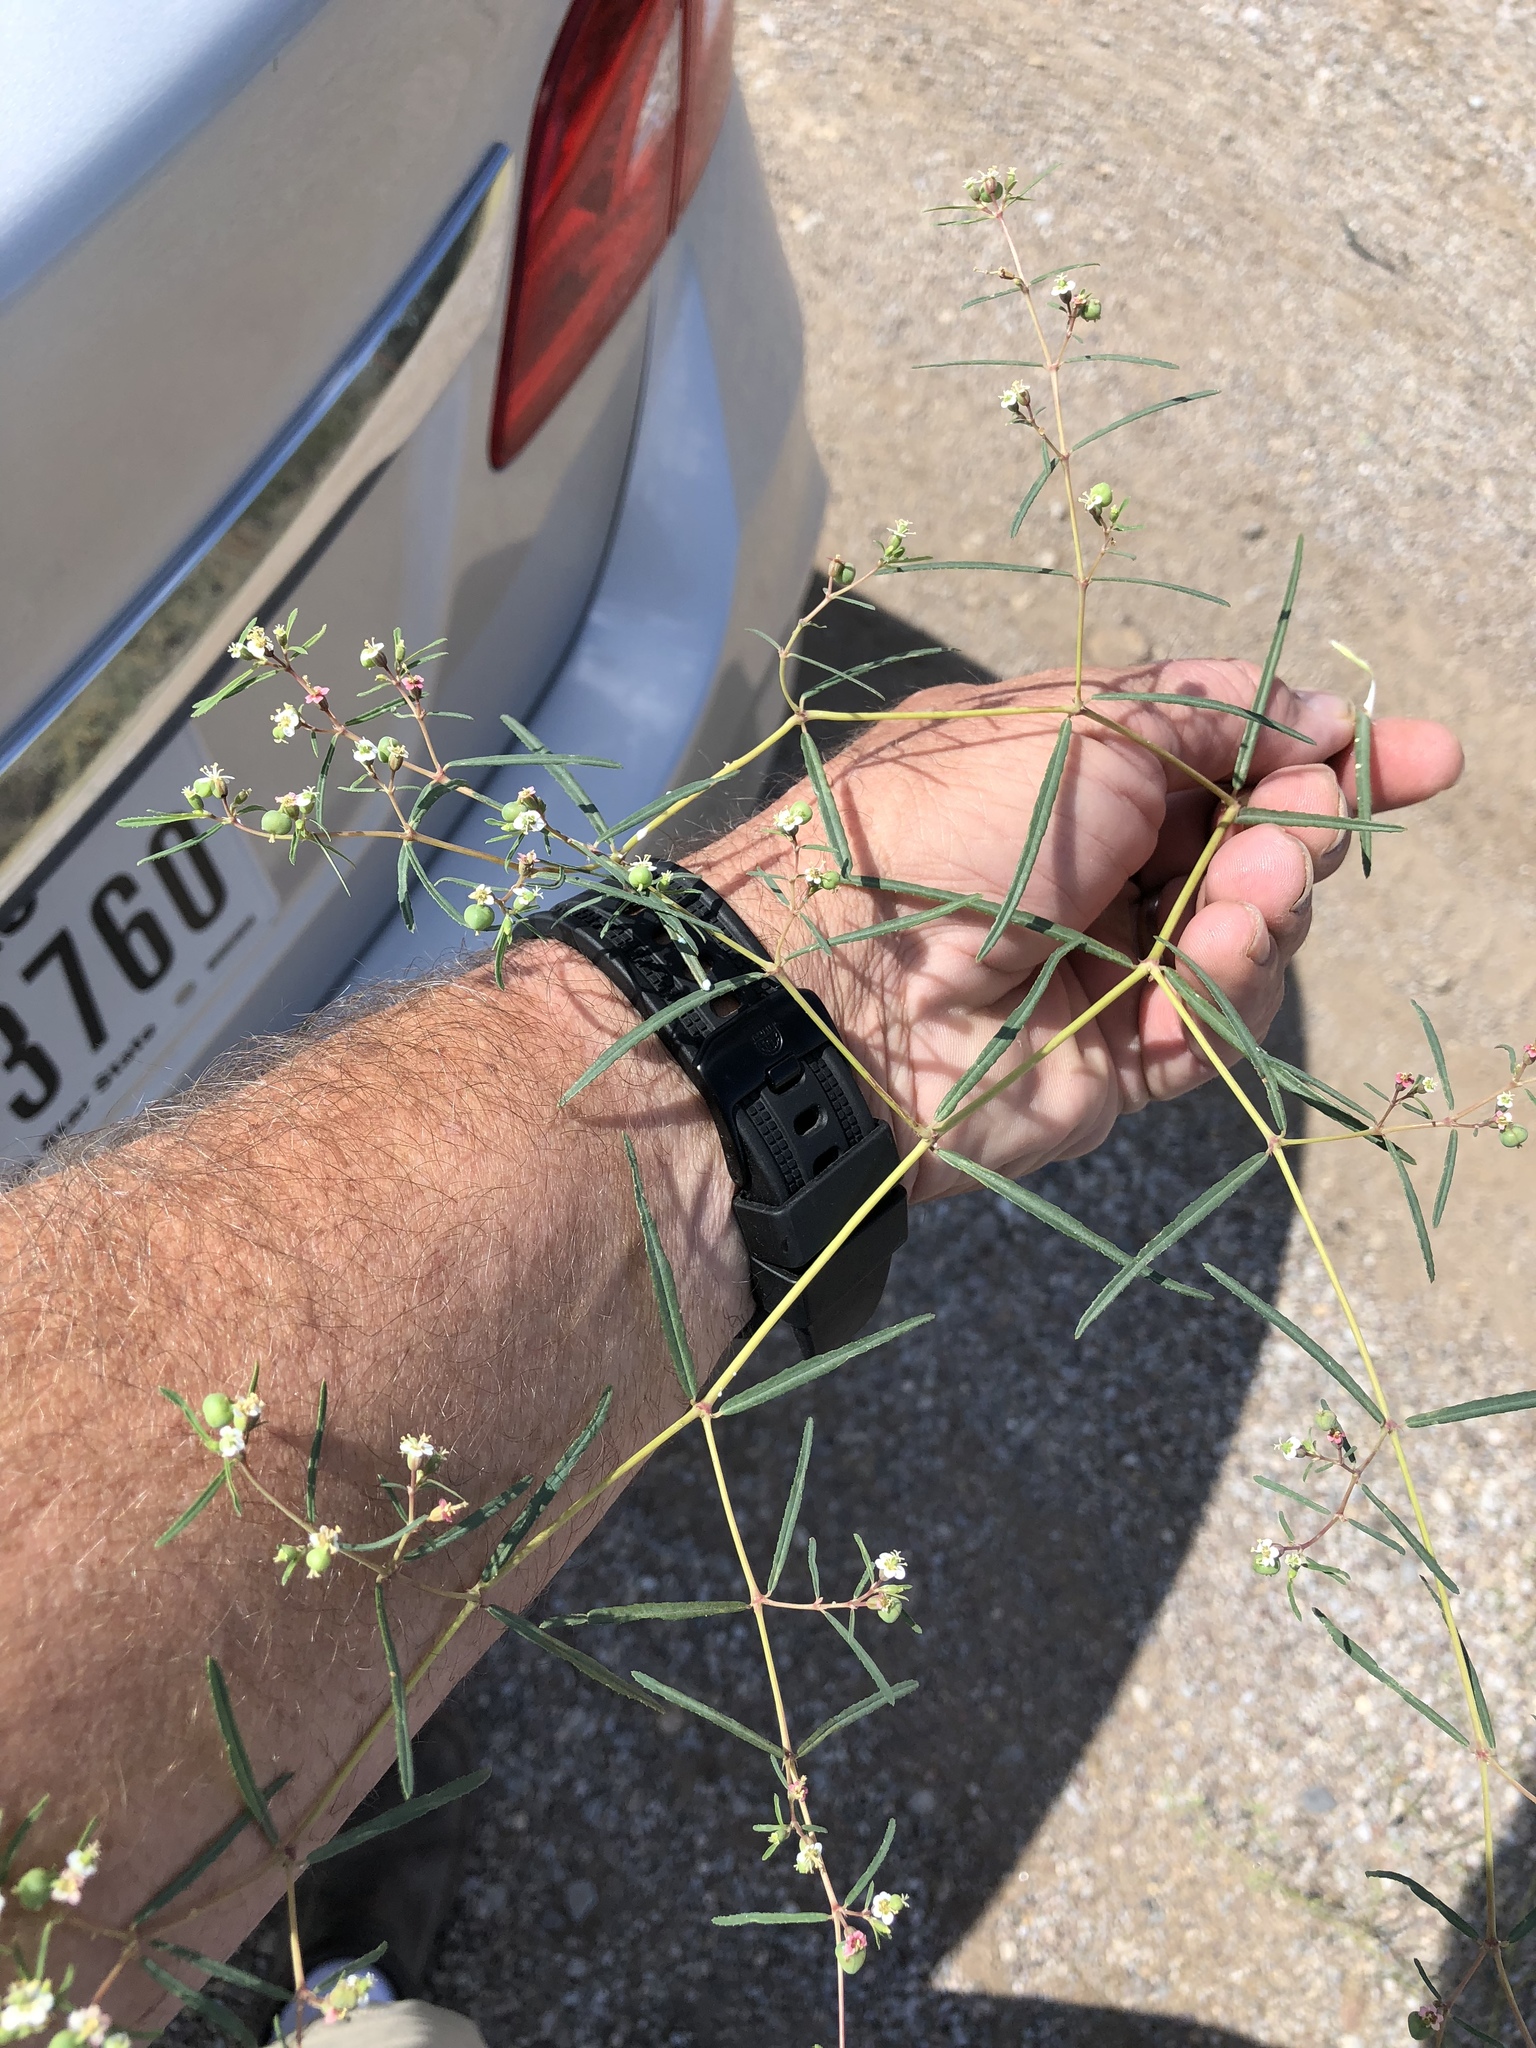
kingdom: Plantae
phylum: Tracheophyta
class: Magnoliopsida
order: Malpighiales
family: Euphorbiaceae
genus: Euphorbia
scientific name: Euphorbia florida
